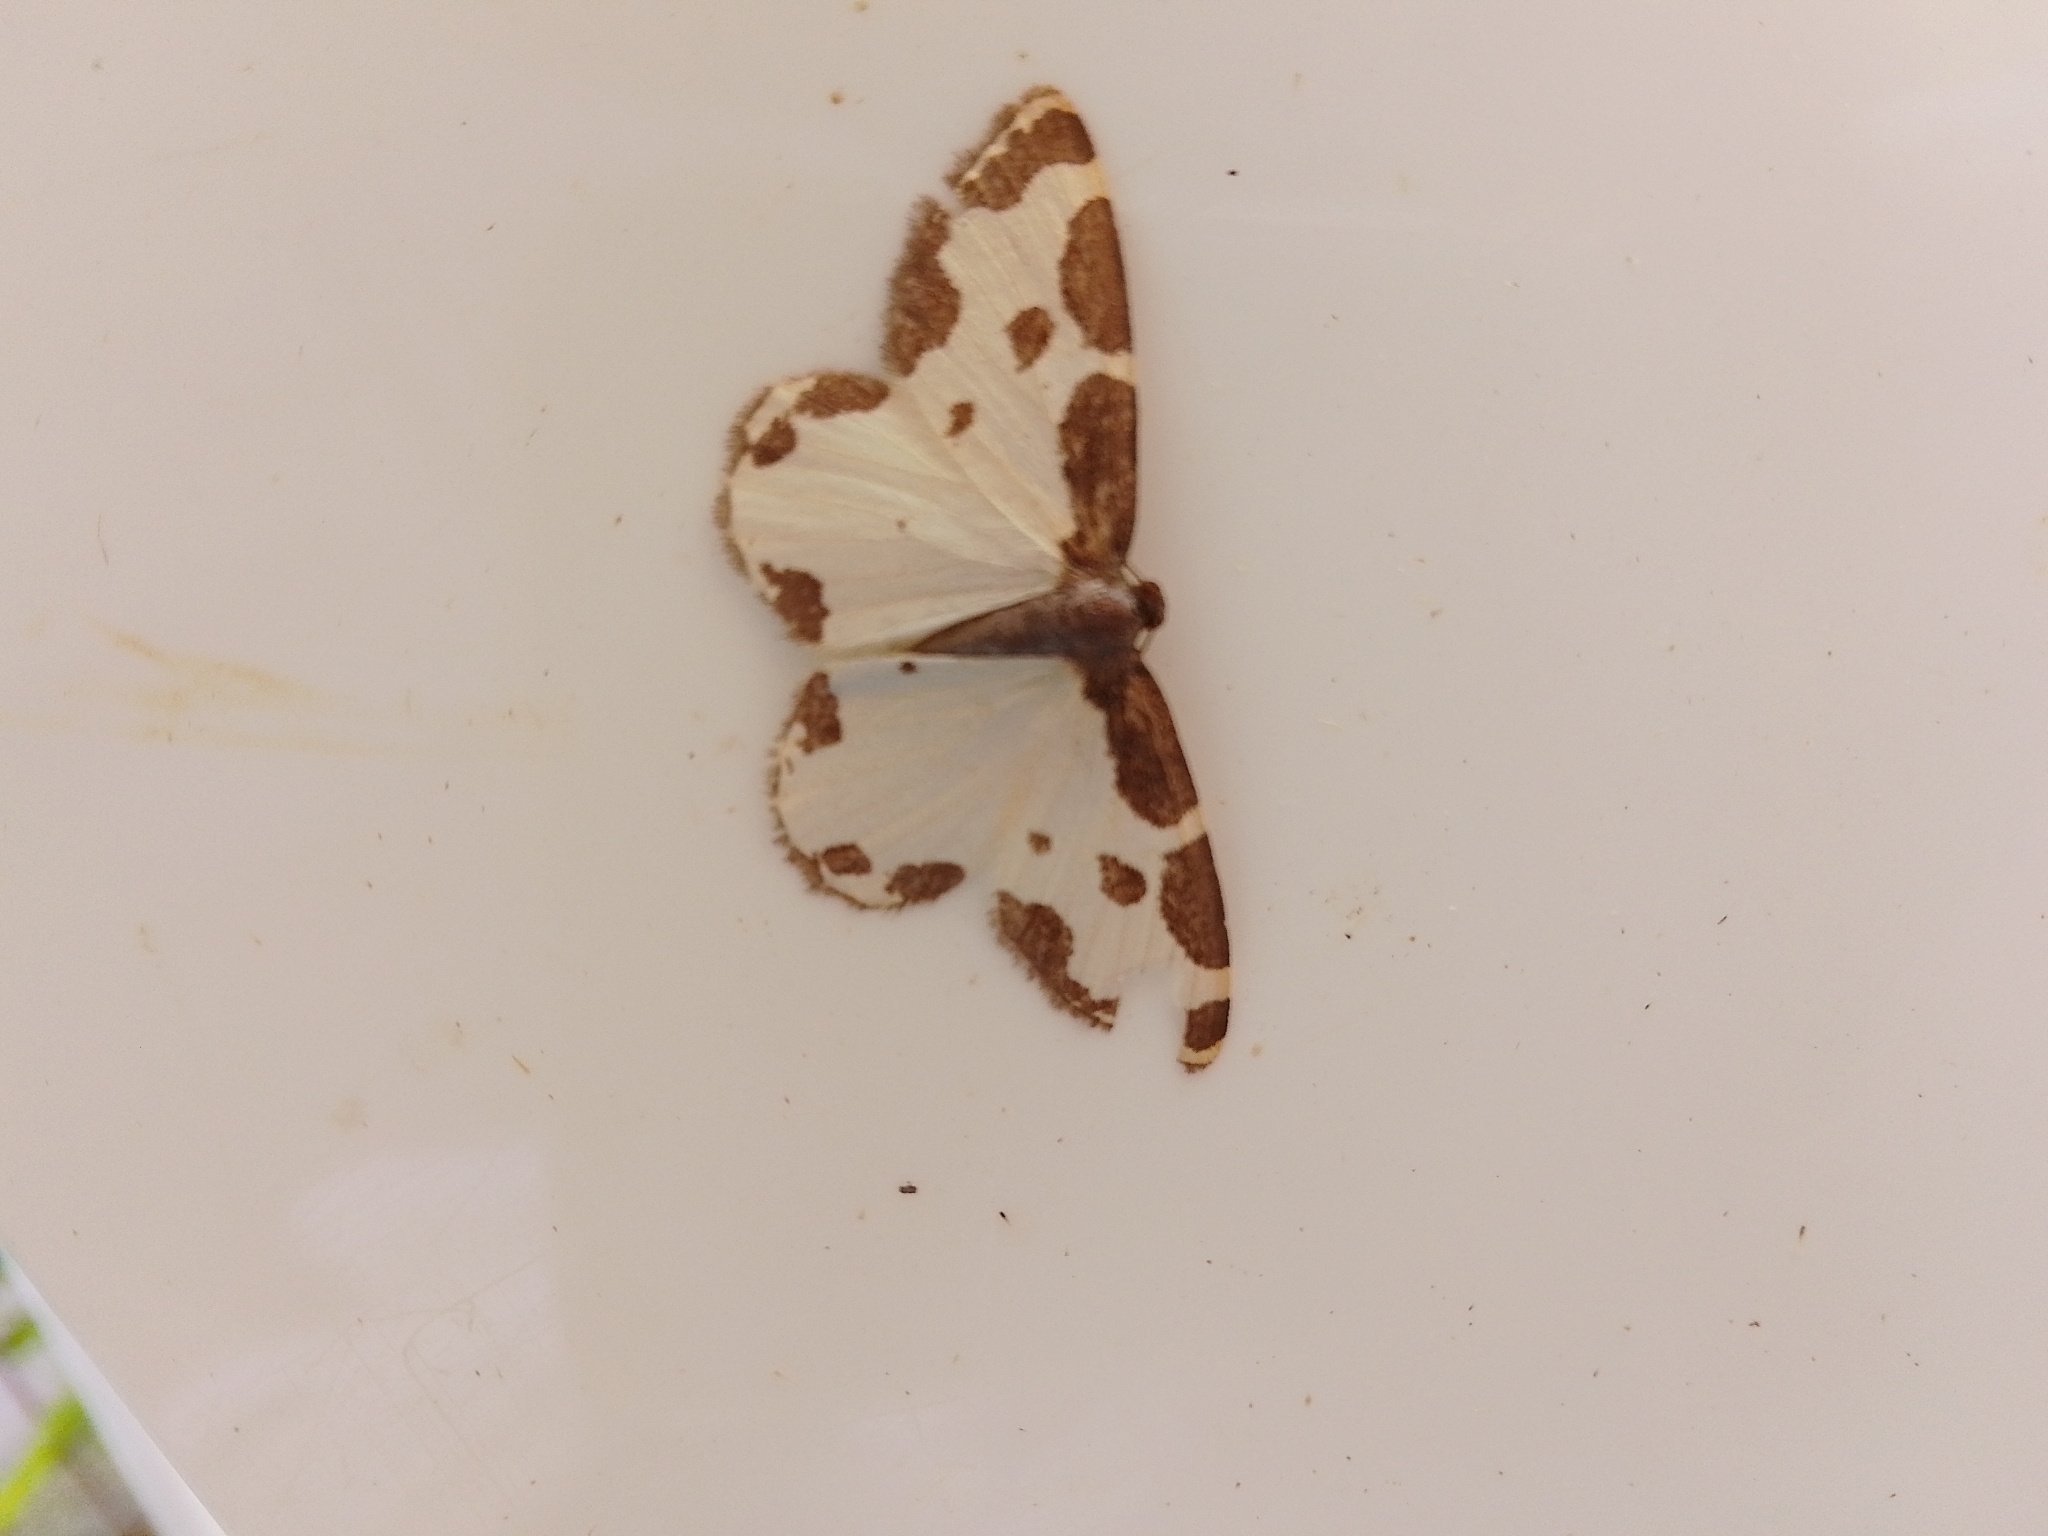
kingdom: Animalia
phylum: Arthropoda
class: Insecta
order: Lepidoptera
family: Geometridae
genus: Lomaspilis
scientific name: Lomaspilis marginata
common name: Clouded border
